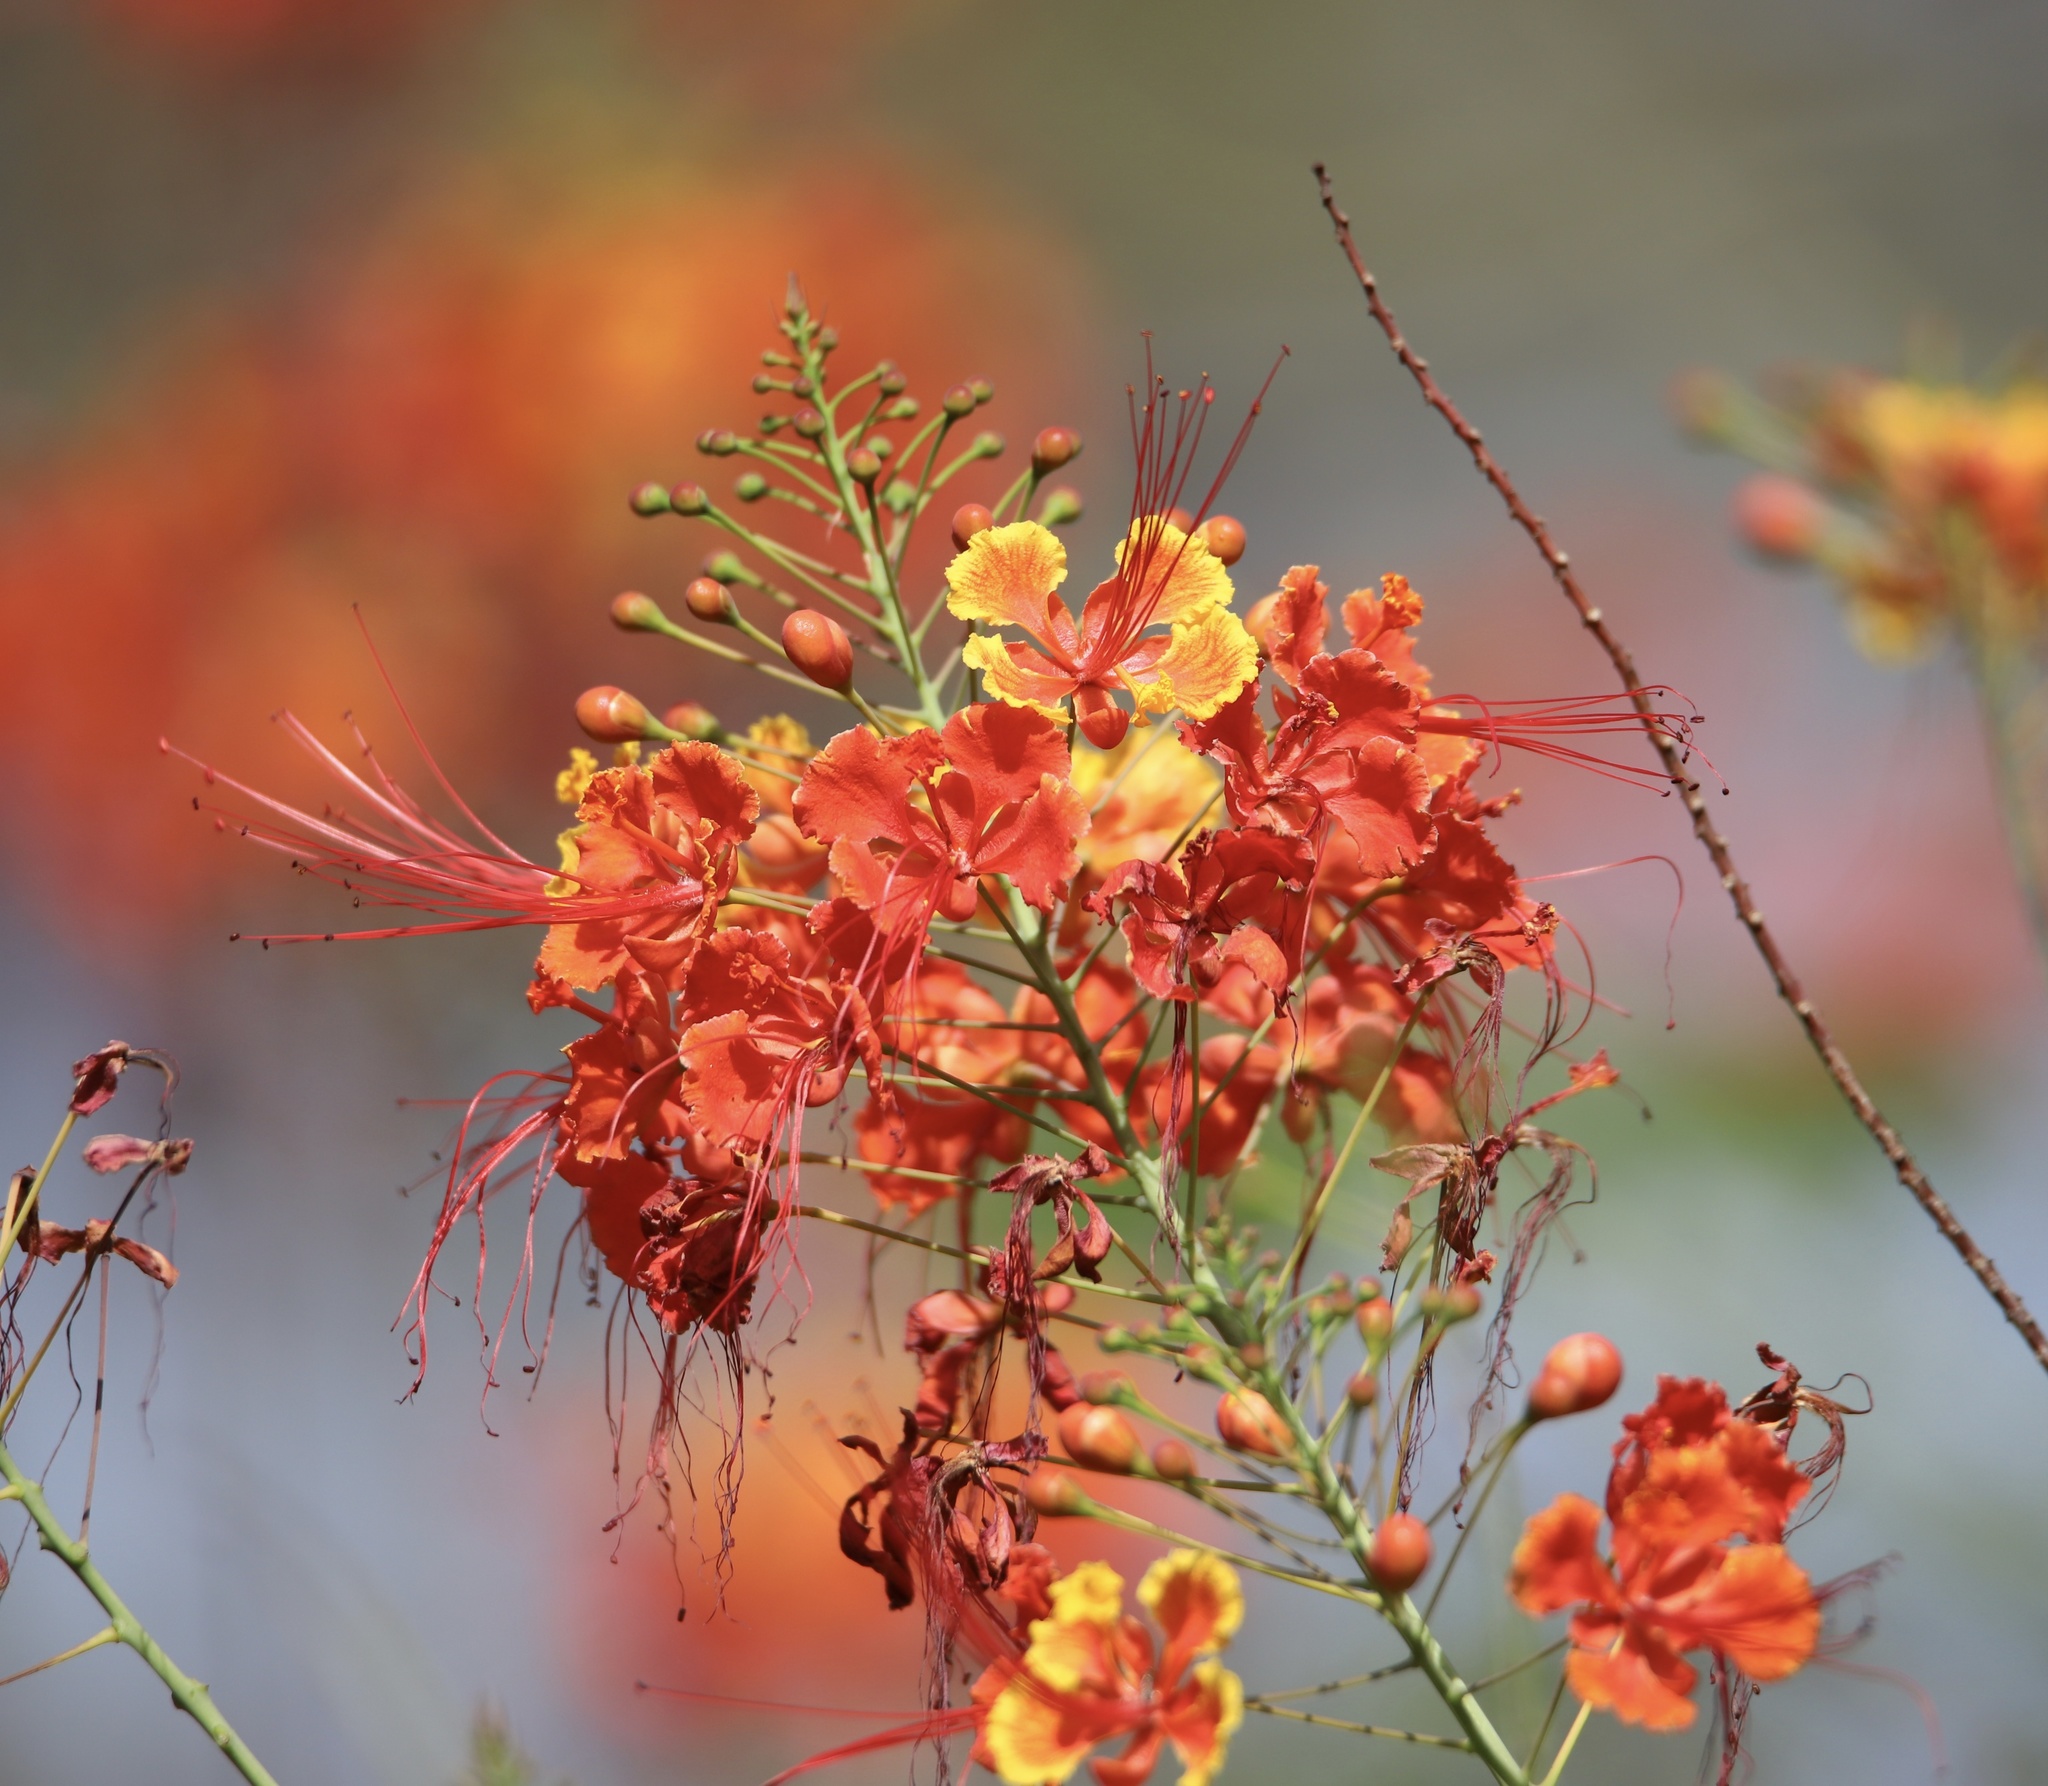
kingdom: Plantae
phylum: Tracheophyta
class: Magnoliopsida
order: Fabales
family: Fabaceae
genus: Caesalpinia
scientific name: Caesalpinia pulcherrima
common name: Pride-of-barbados
